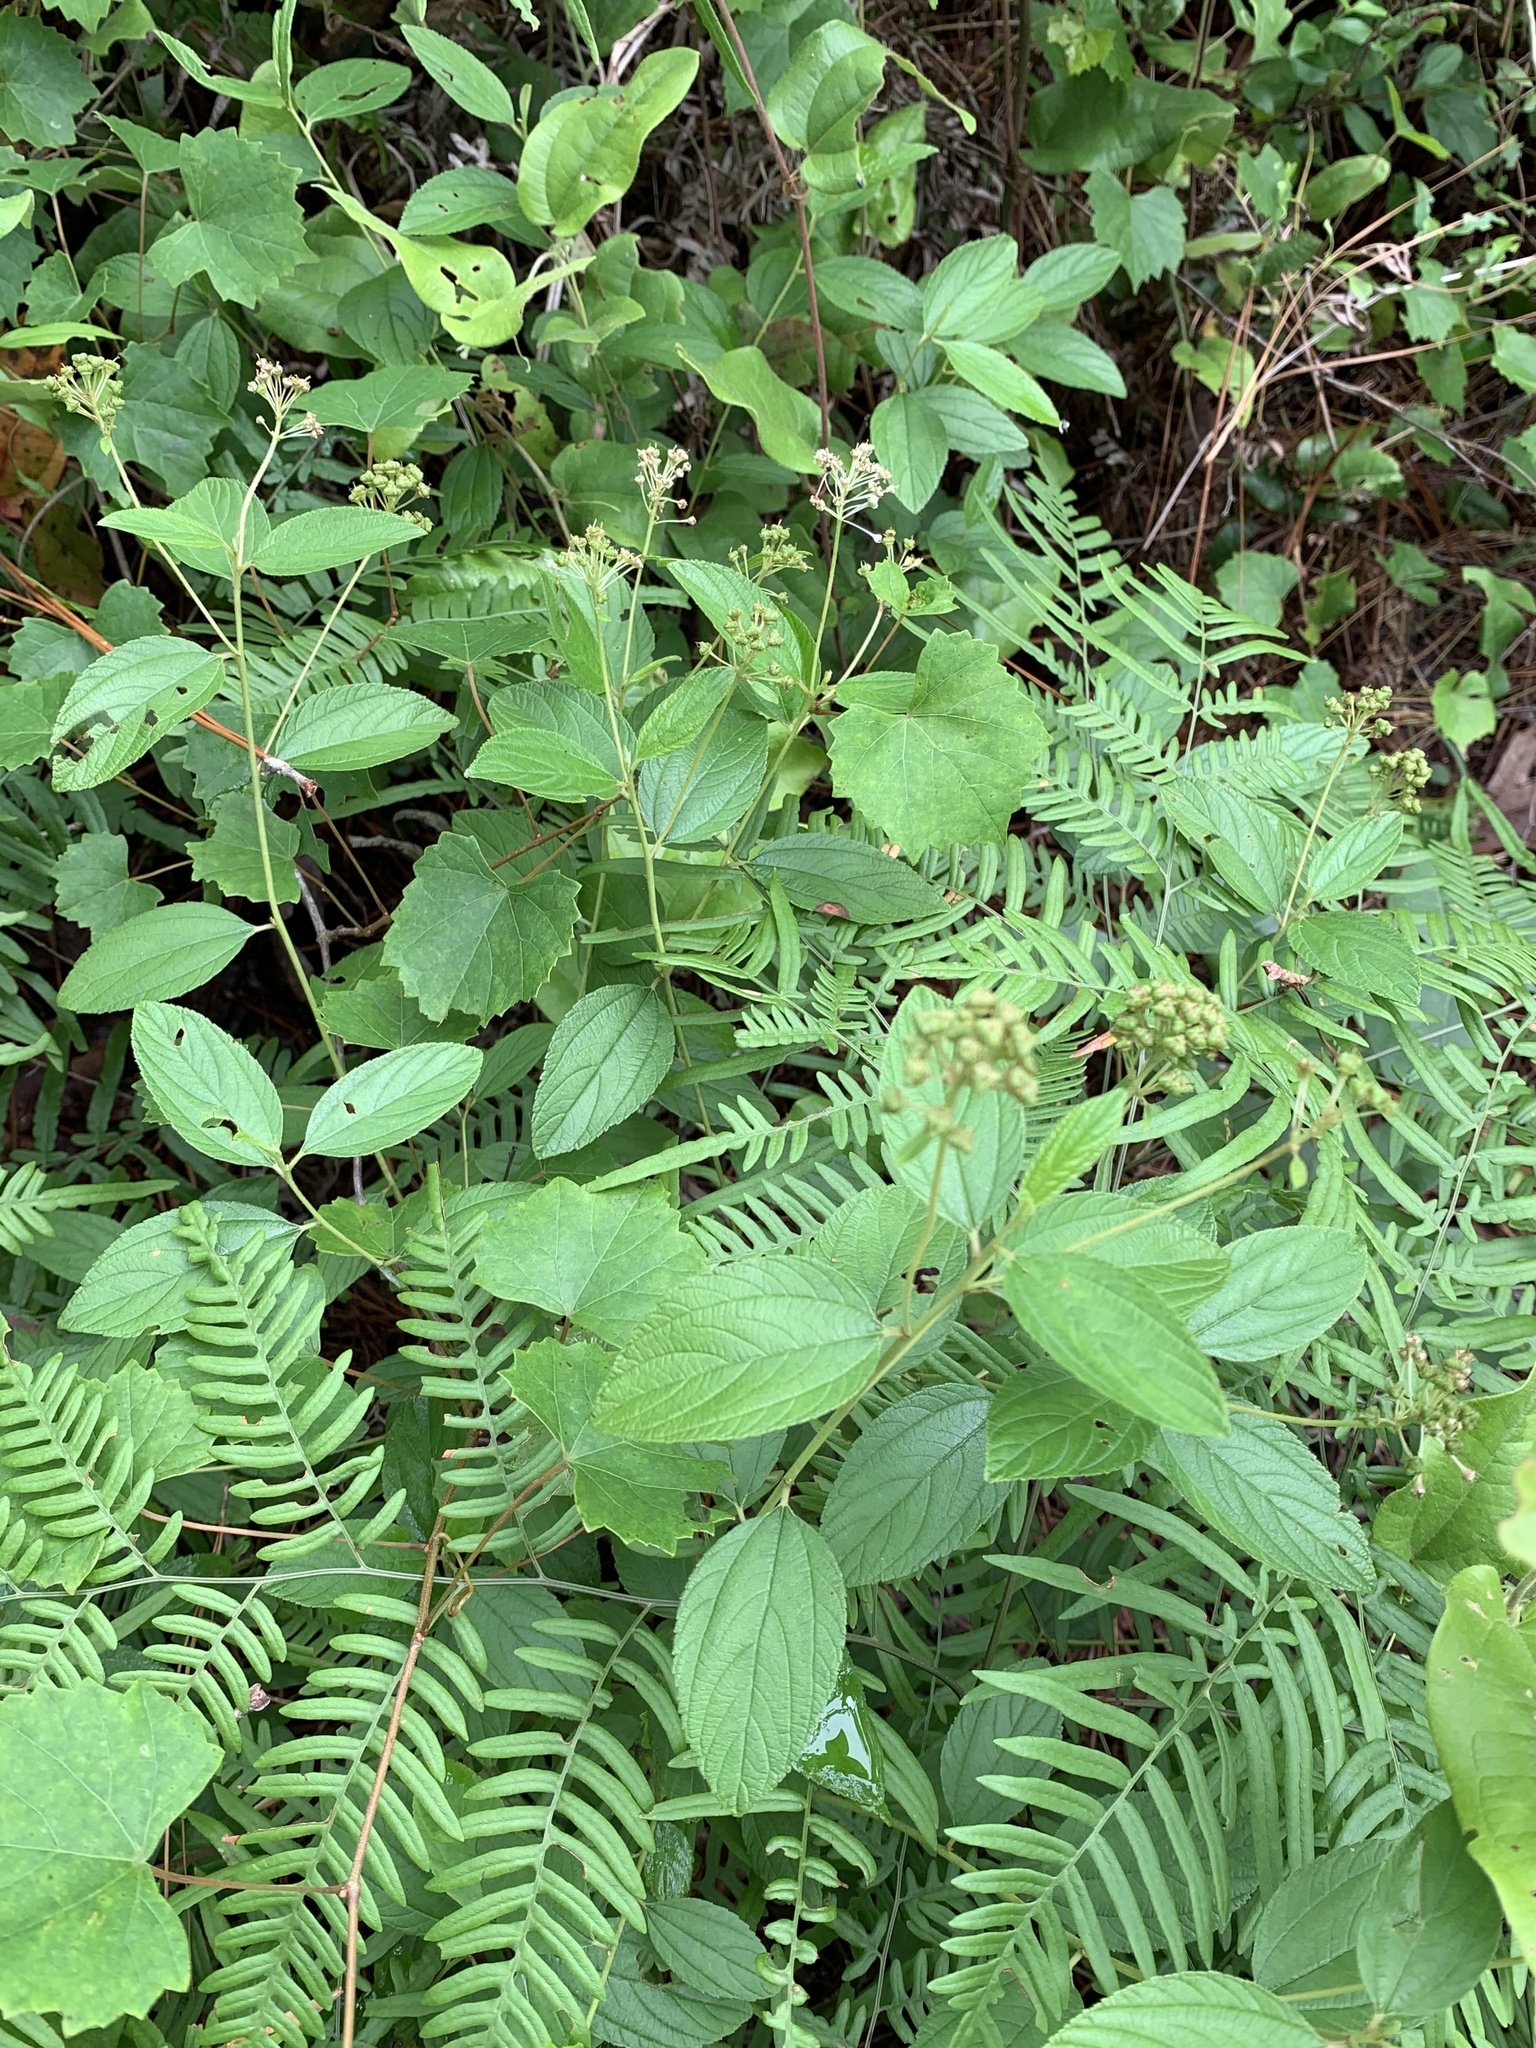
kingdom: Plantae
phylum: Tracheophyta
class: Magnoliopsida
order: Rosales
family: Rhamnaceae
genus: Ceanothus
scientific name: Ceanothus americanus
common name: Redroot
